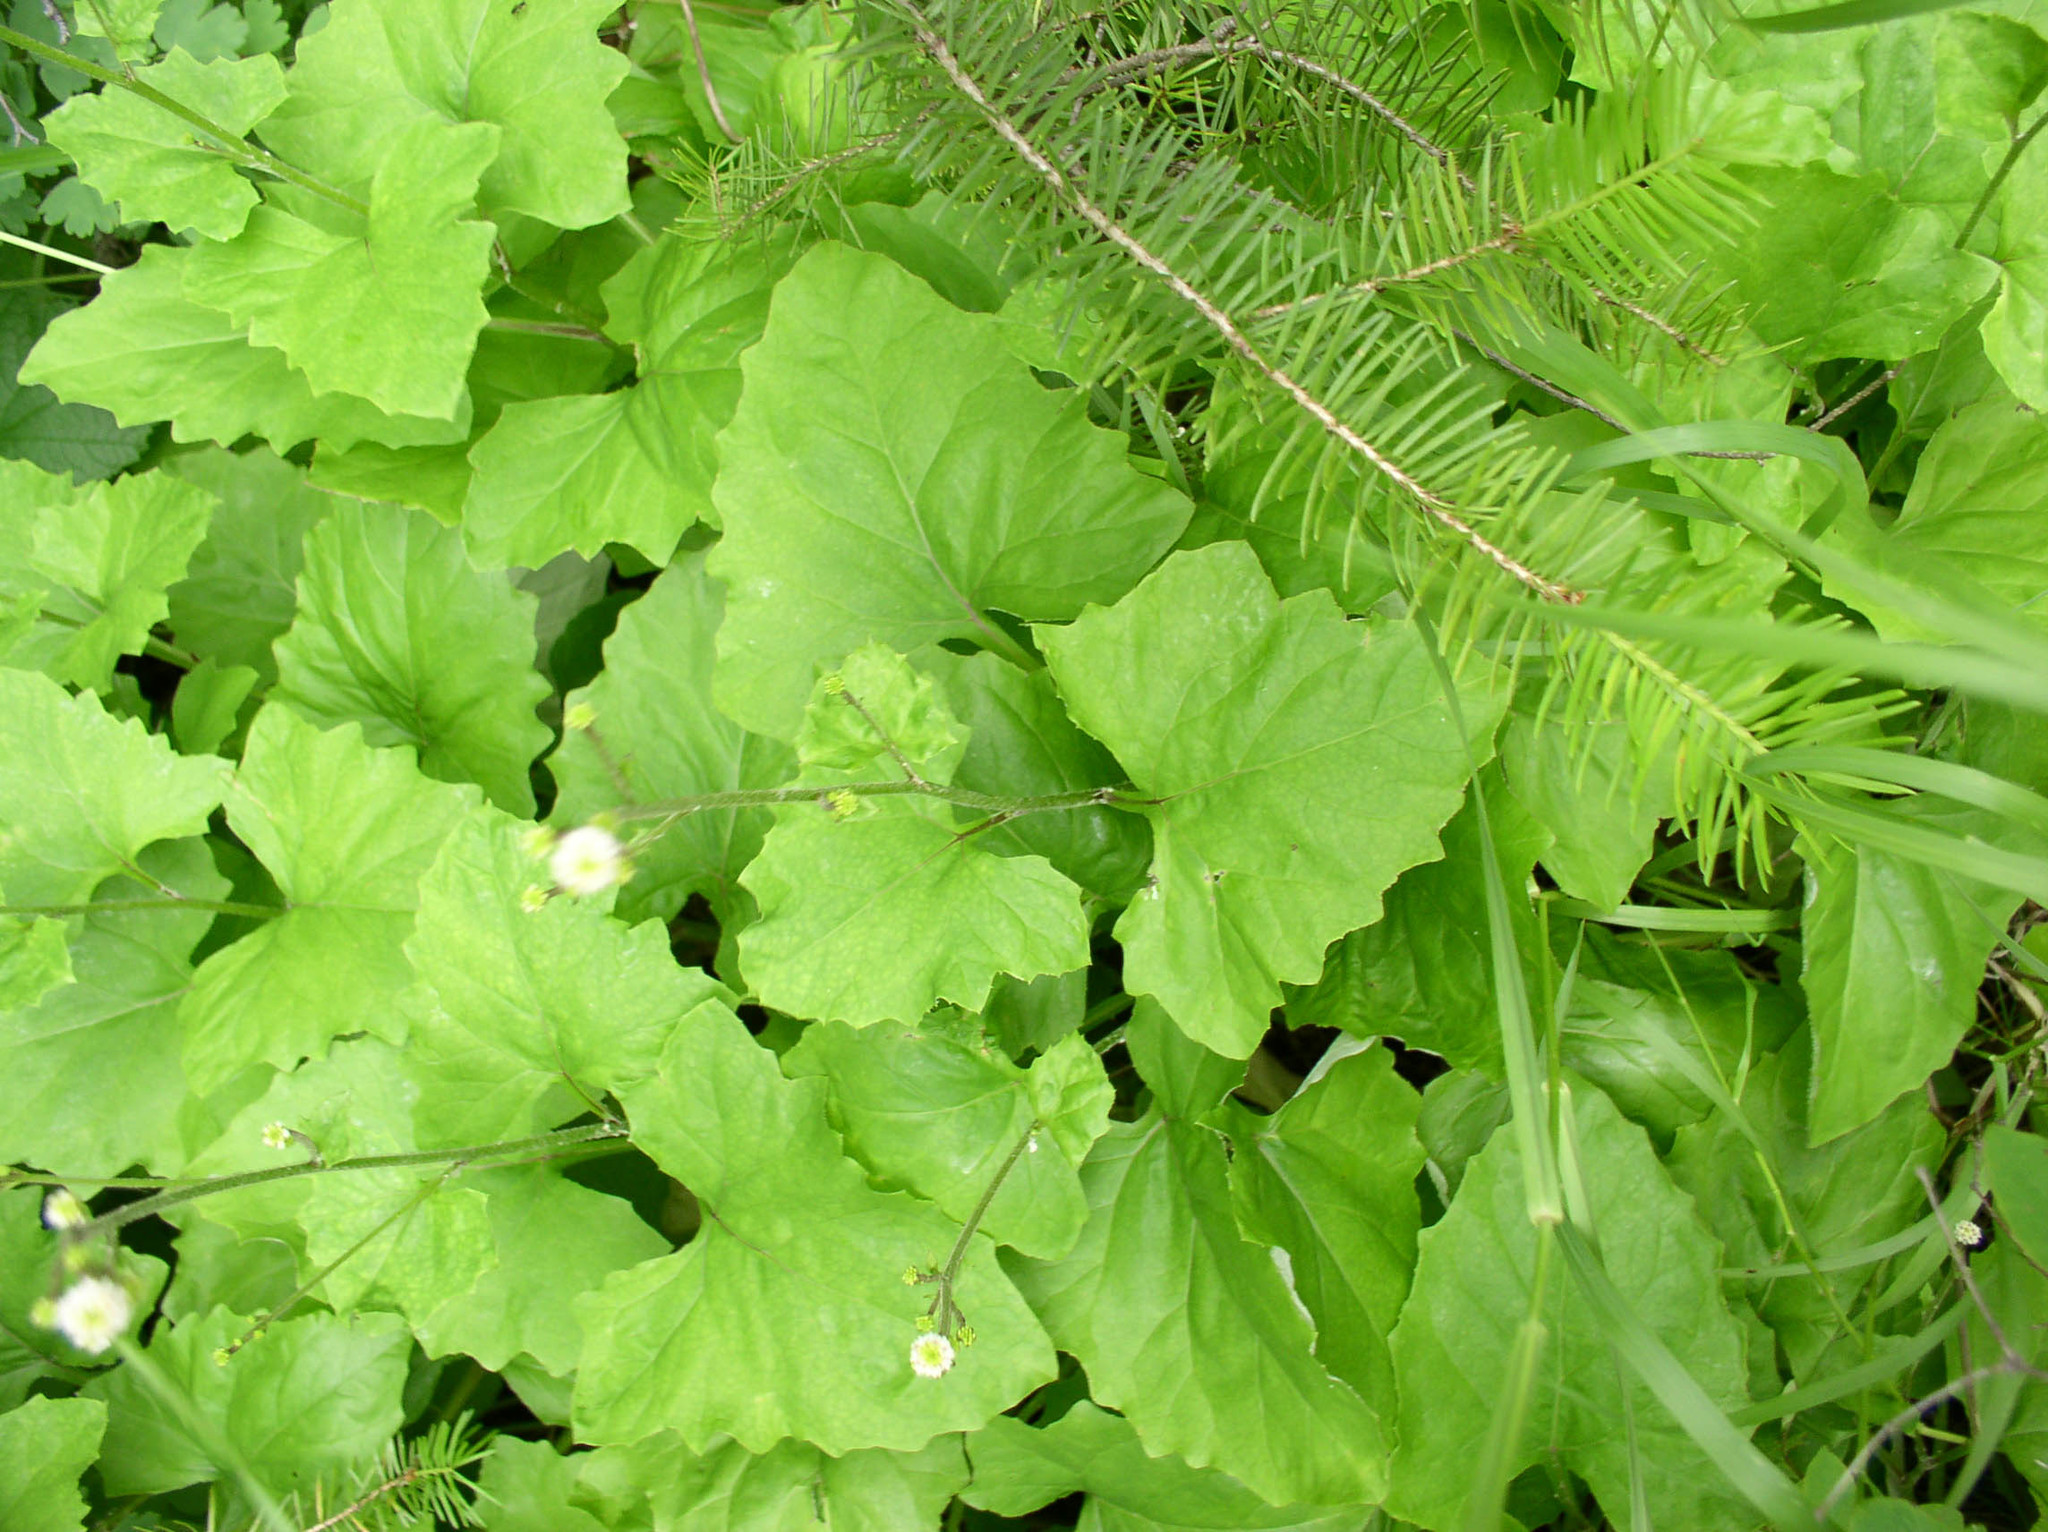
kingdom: Plantae
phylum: Tracheophyta
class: Magnoliopsida
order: Asterales
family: Asteraceae
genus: Adenocaulon
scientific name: Adenocaulon bicolor
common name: Trailplant
